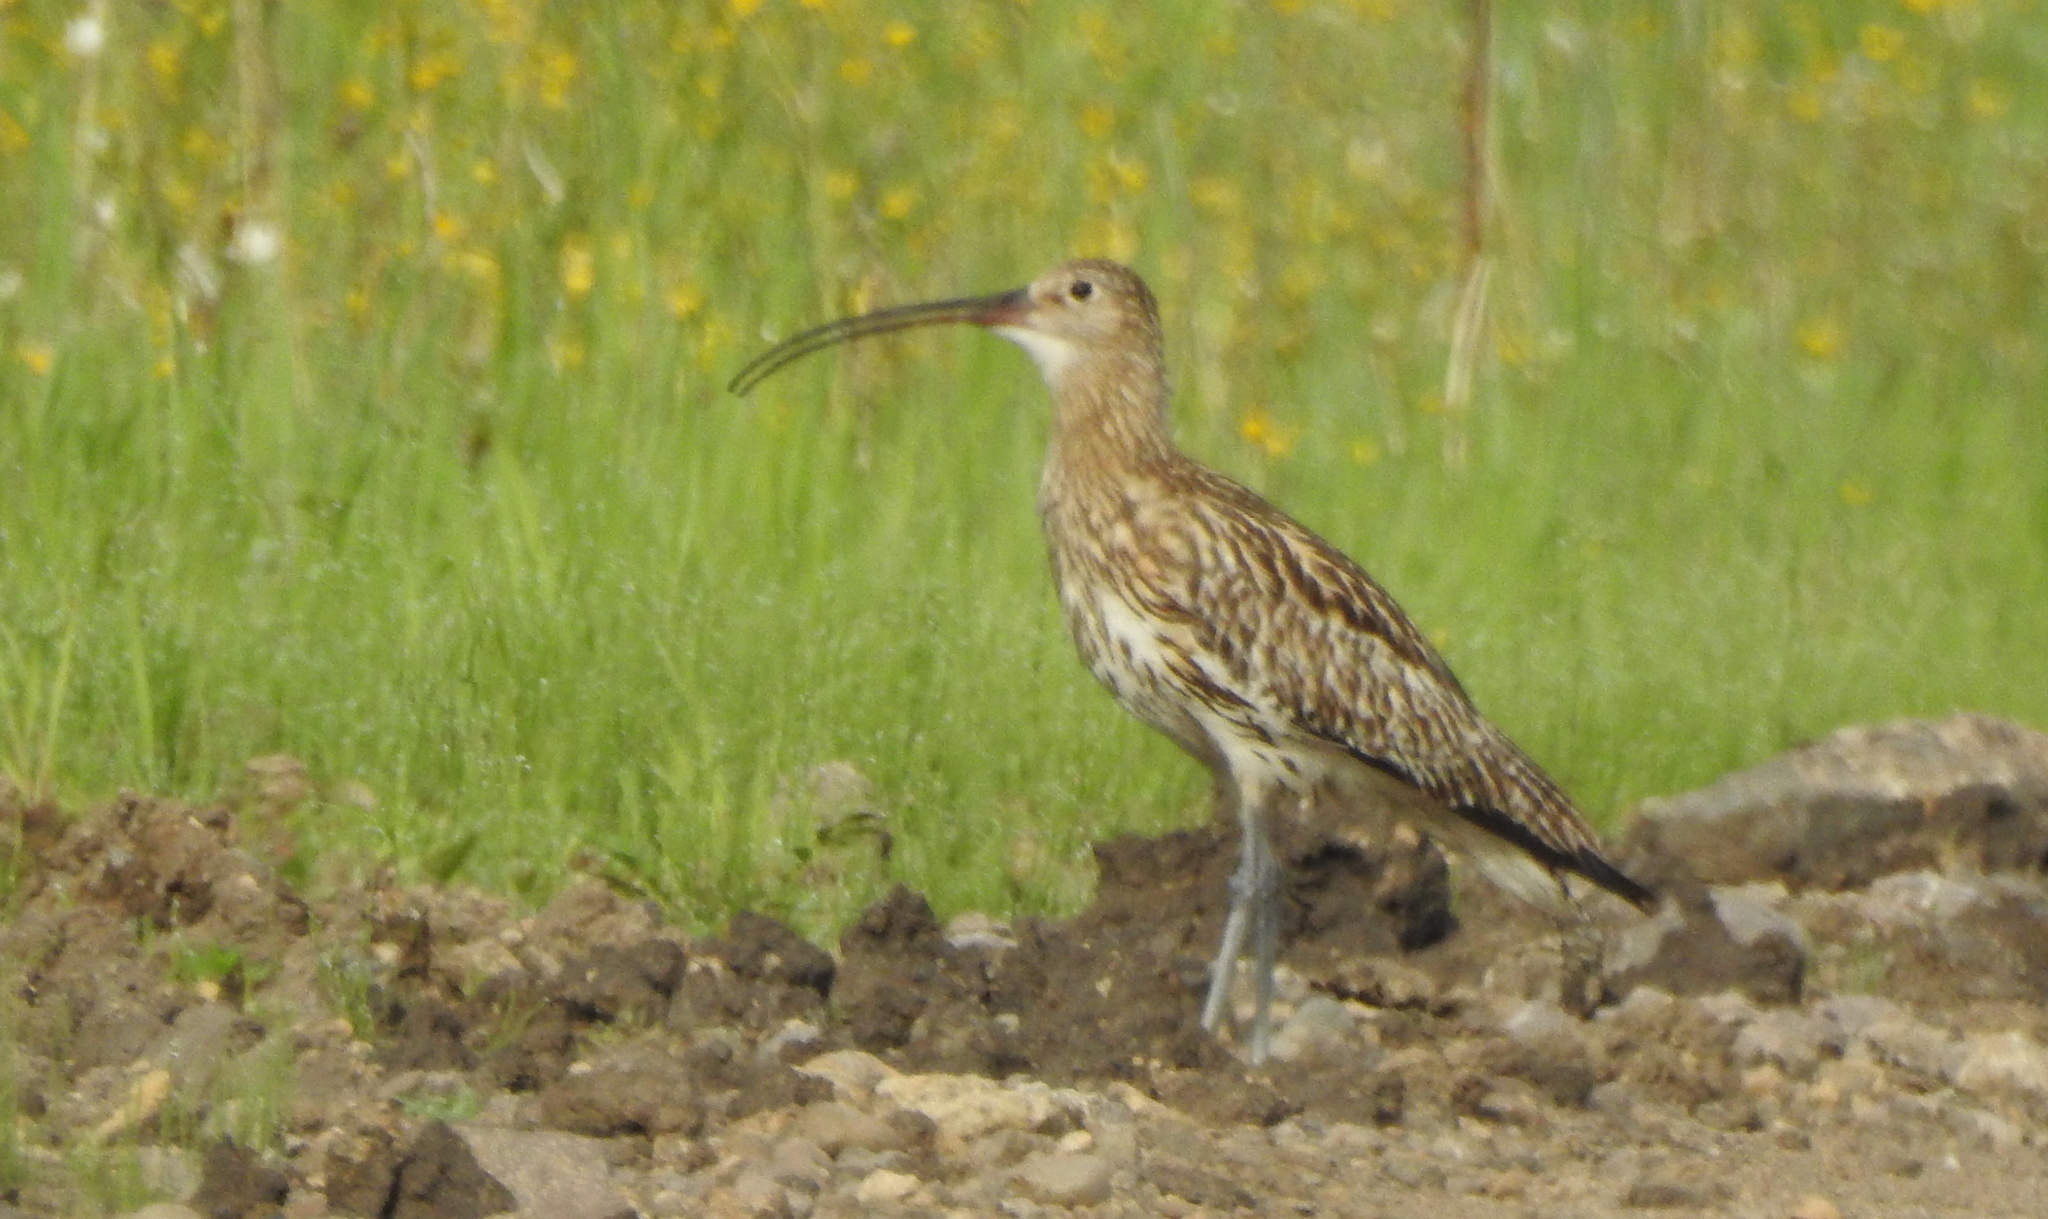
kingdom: Animalia
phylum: Chordata
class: Aves
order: Charadriiformes
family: Scolopacidae
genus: Numenius
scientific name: Numenius arquata
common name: Eurasian curlew
